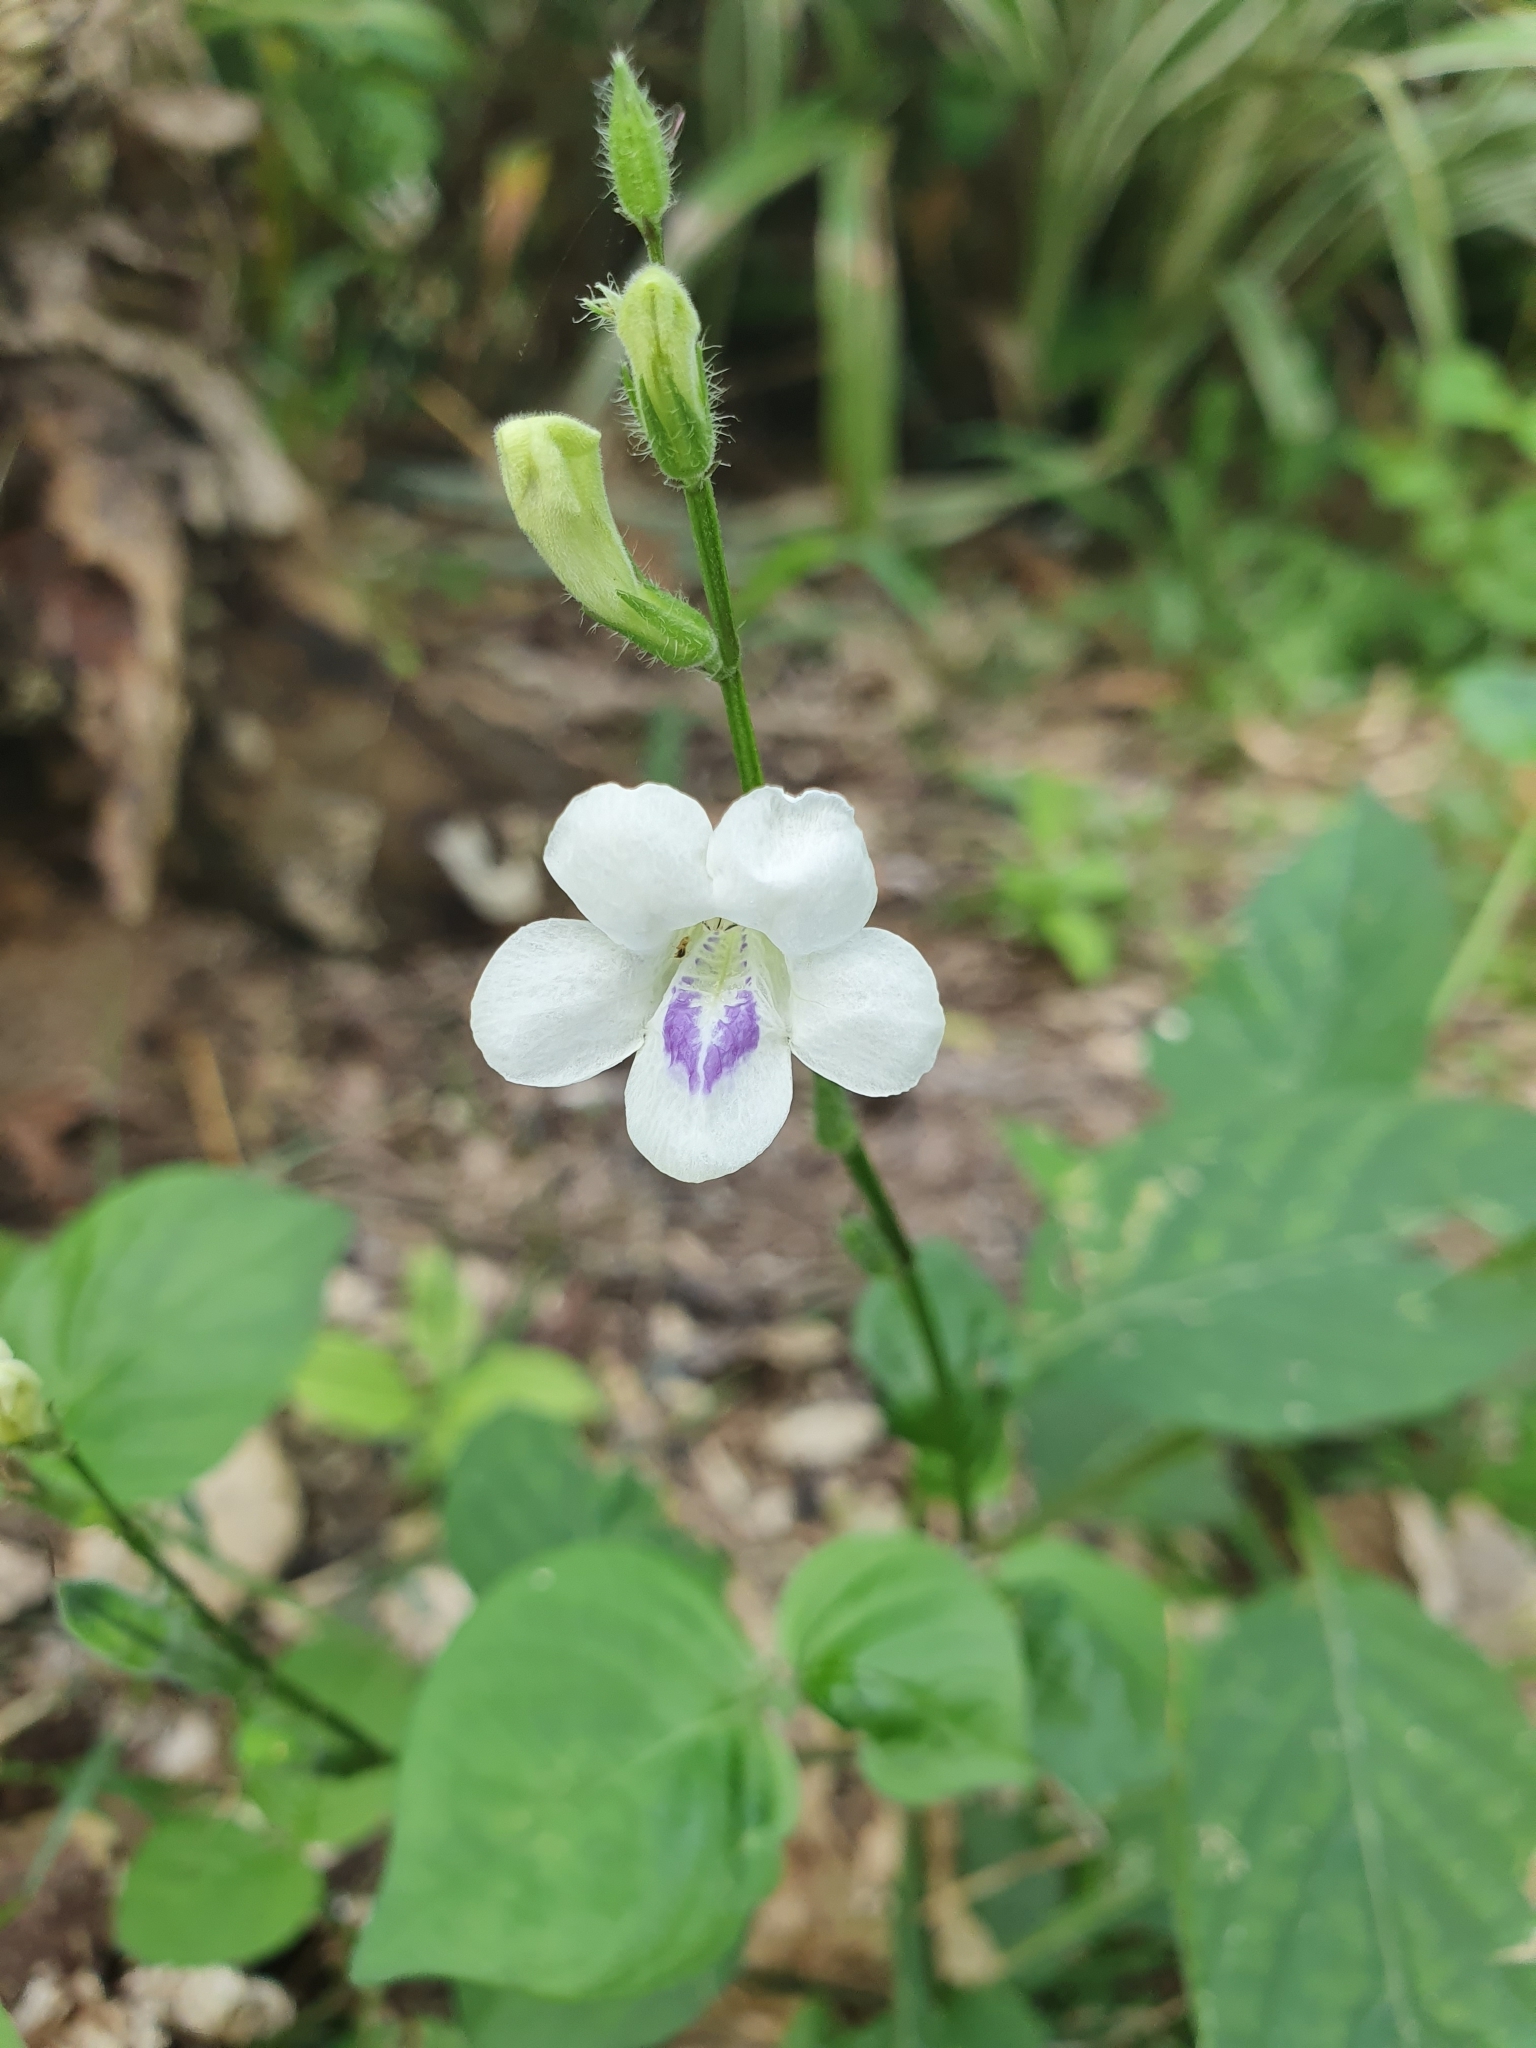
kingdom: Plantae
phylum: Tracheophyta
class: Magnoliopsida
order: Lamiales
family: Acanthaceae
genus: Asystasia
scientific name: Asystasia intrusa
